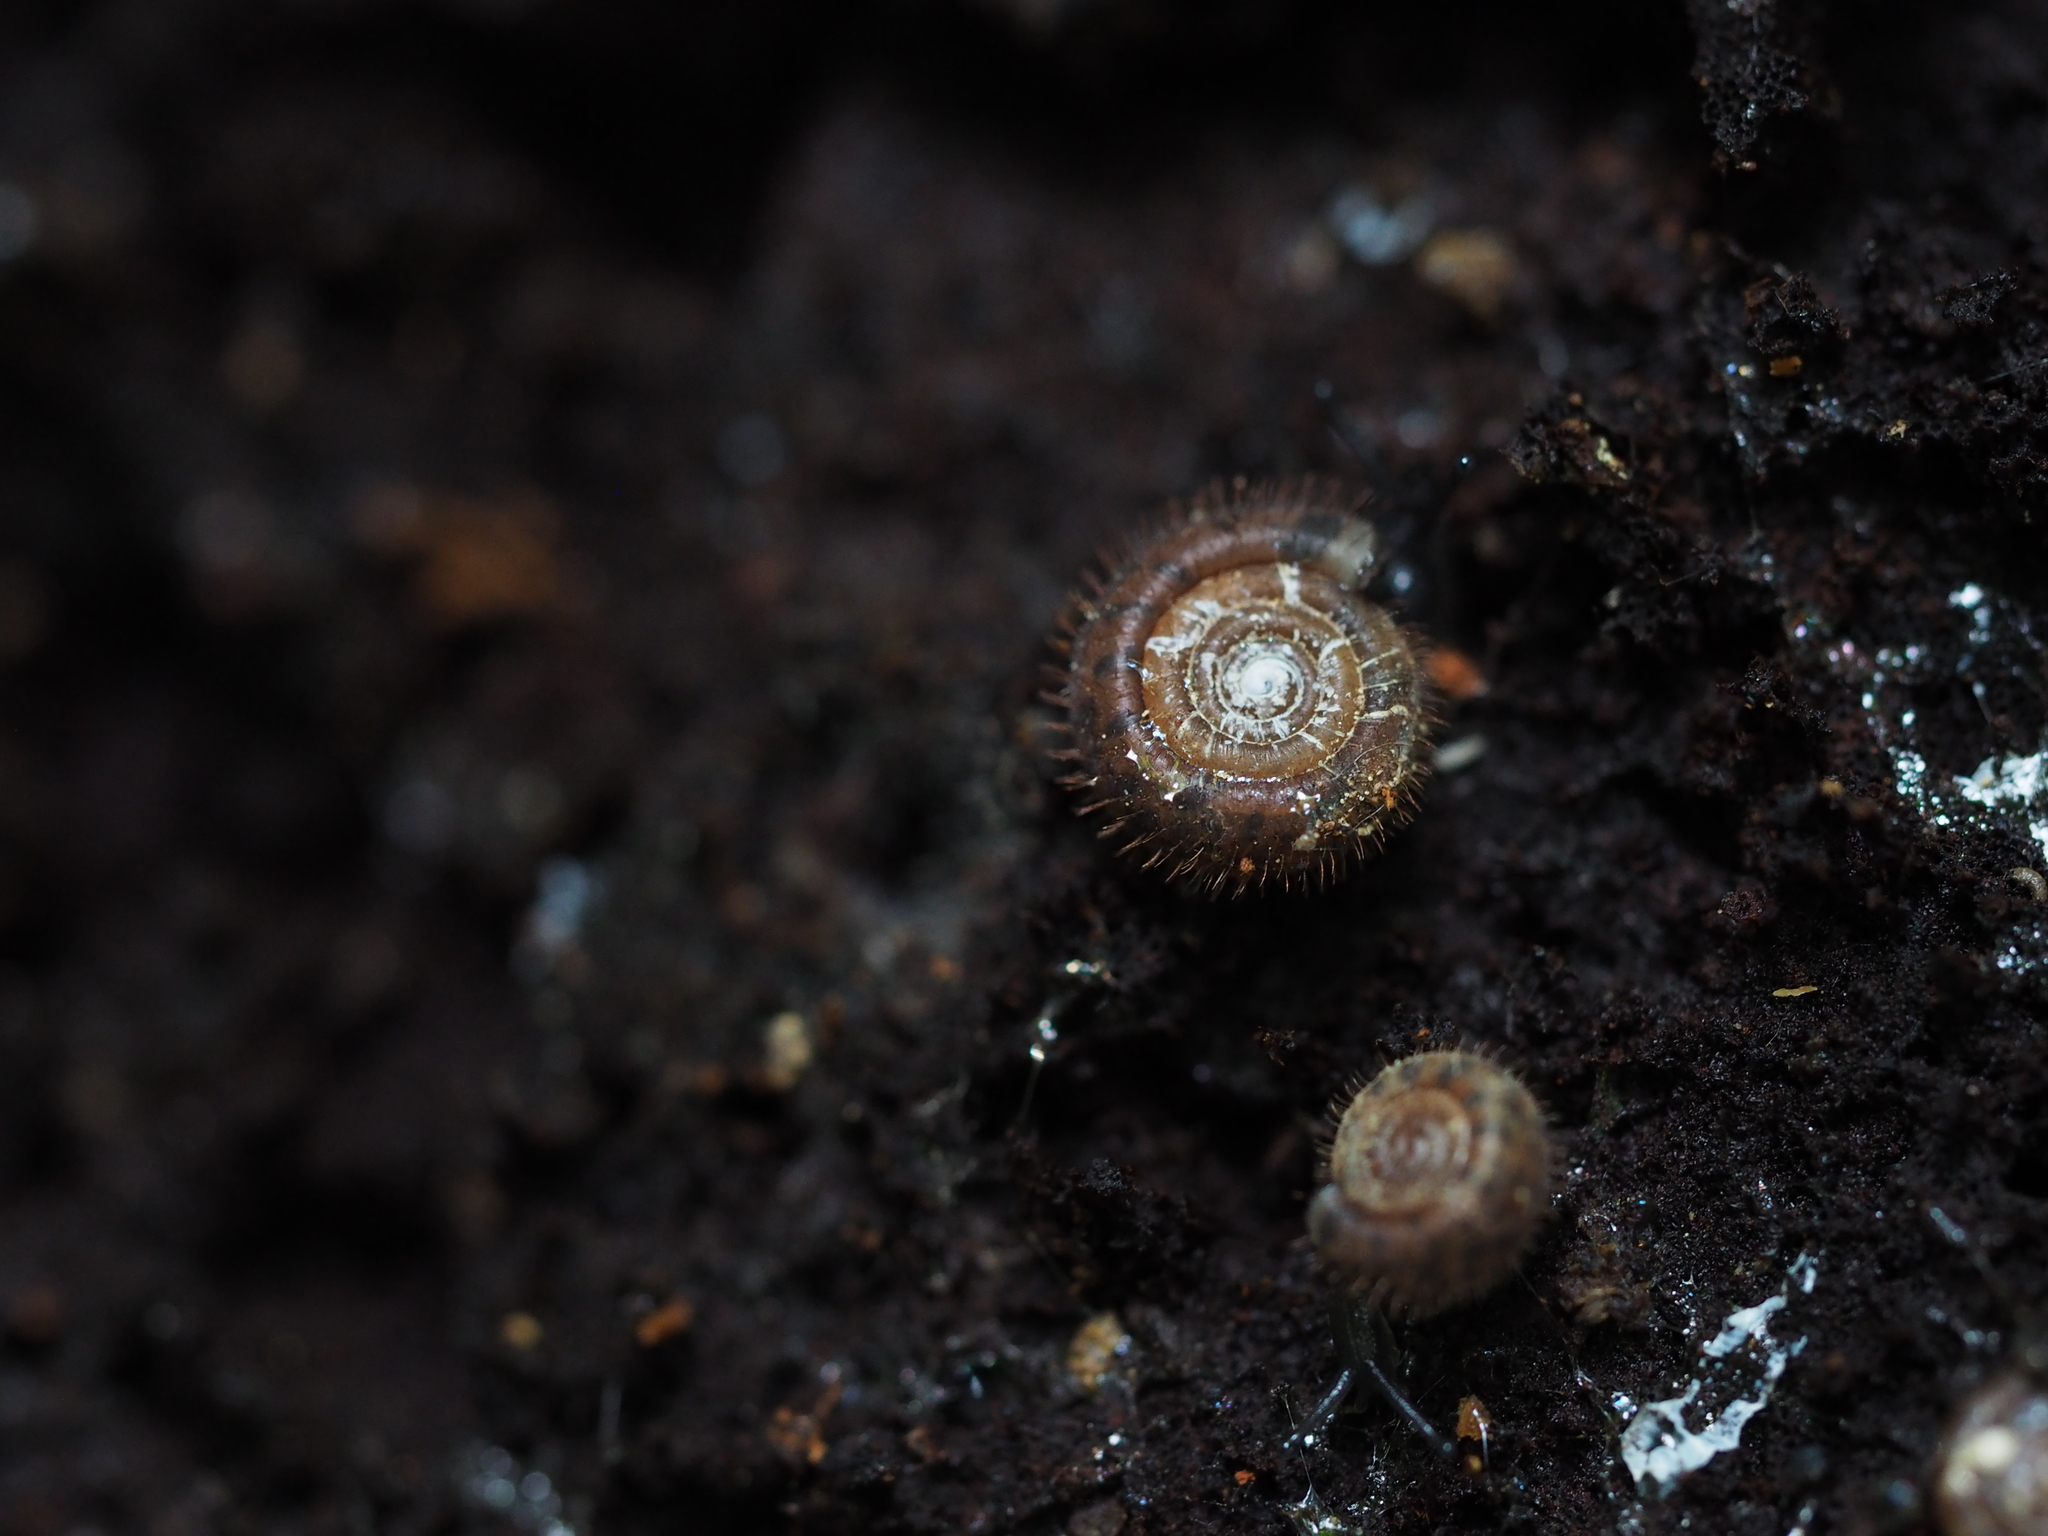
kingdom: Animalia
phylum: Mollusca
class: Gastropoda
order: Stylommatophora
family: Helicodontidae
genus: Helicodonta
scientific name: Helicodonta obvoluta
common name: Cheese snail
